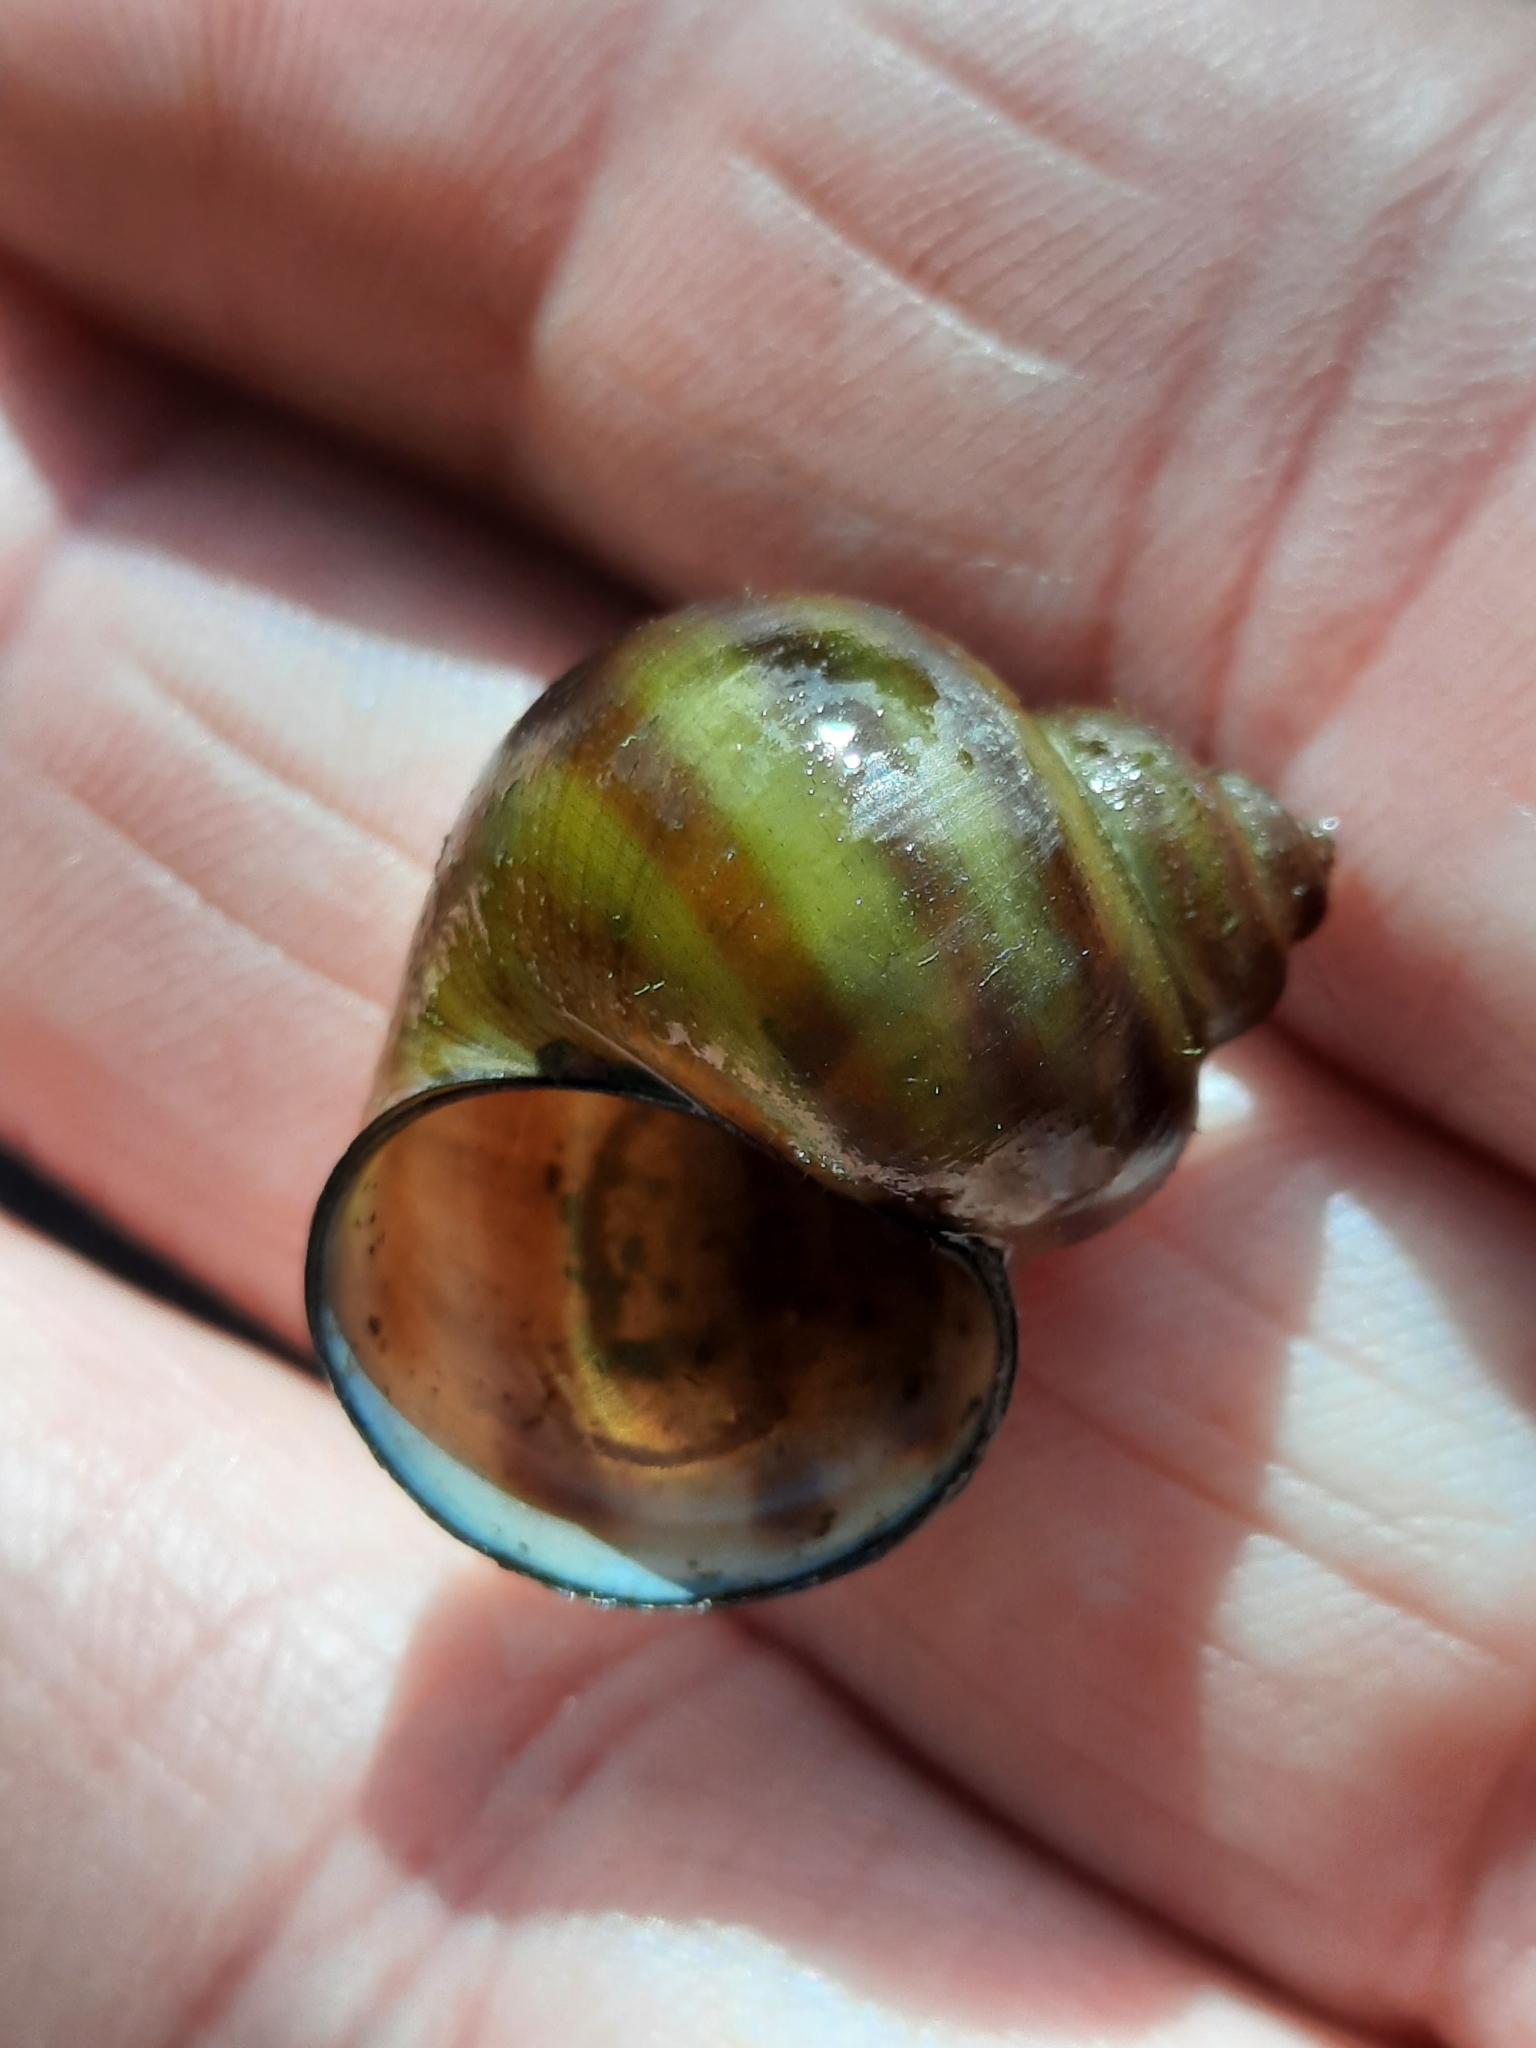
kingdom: Animalia
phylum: Mollusca
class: Gastropoda
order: Architaenioglossa
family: Viviparidae
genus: Callinina
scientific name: Callinina georgiana
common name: Banded mystery snail
